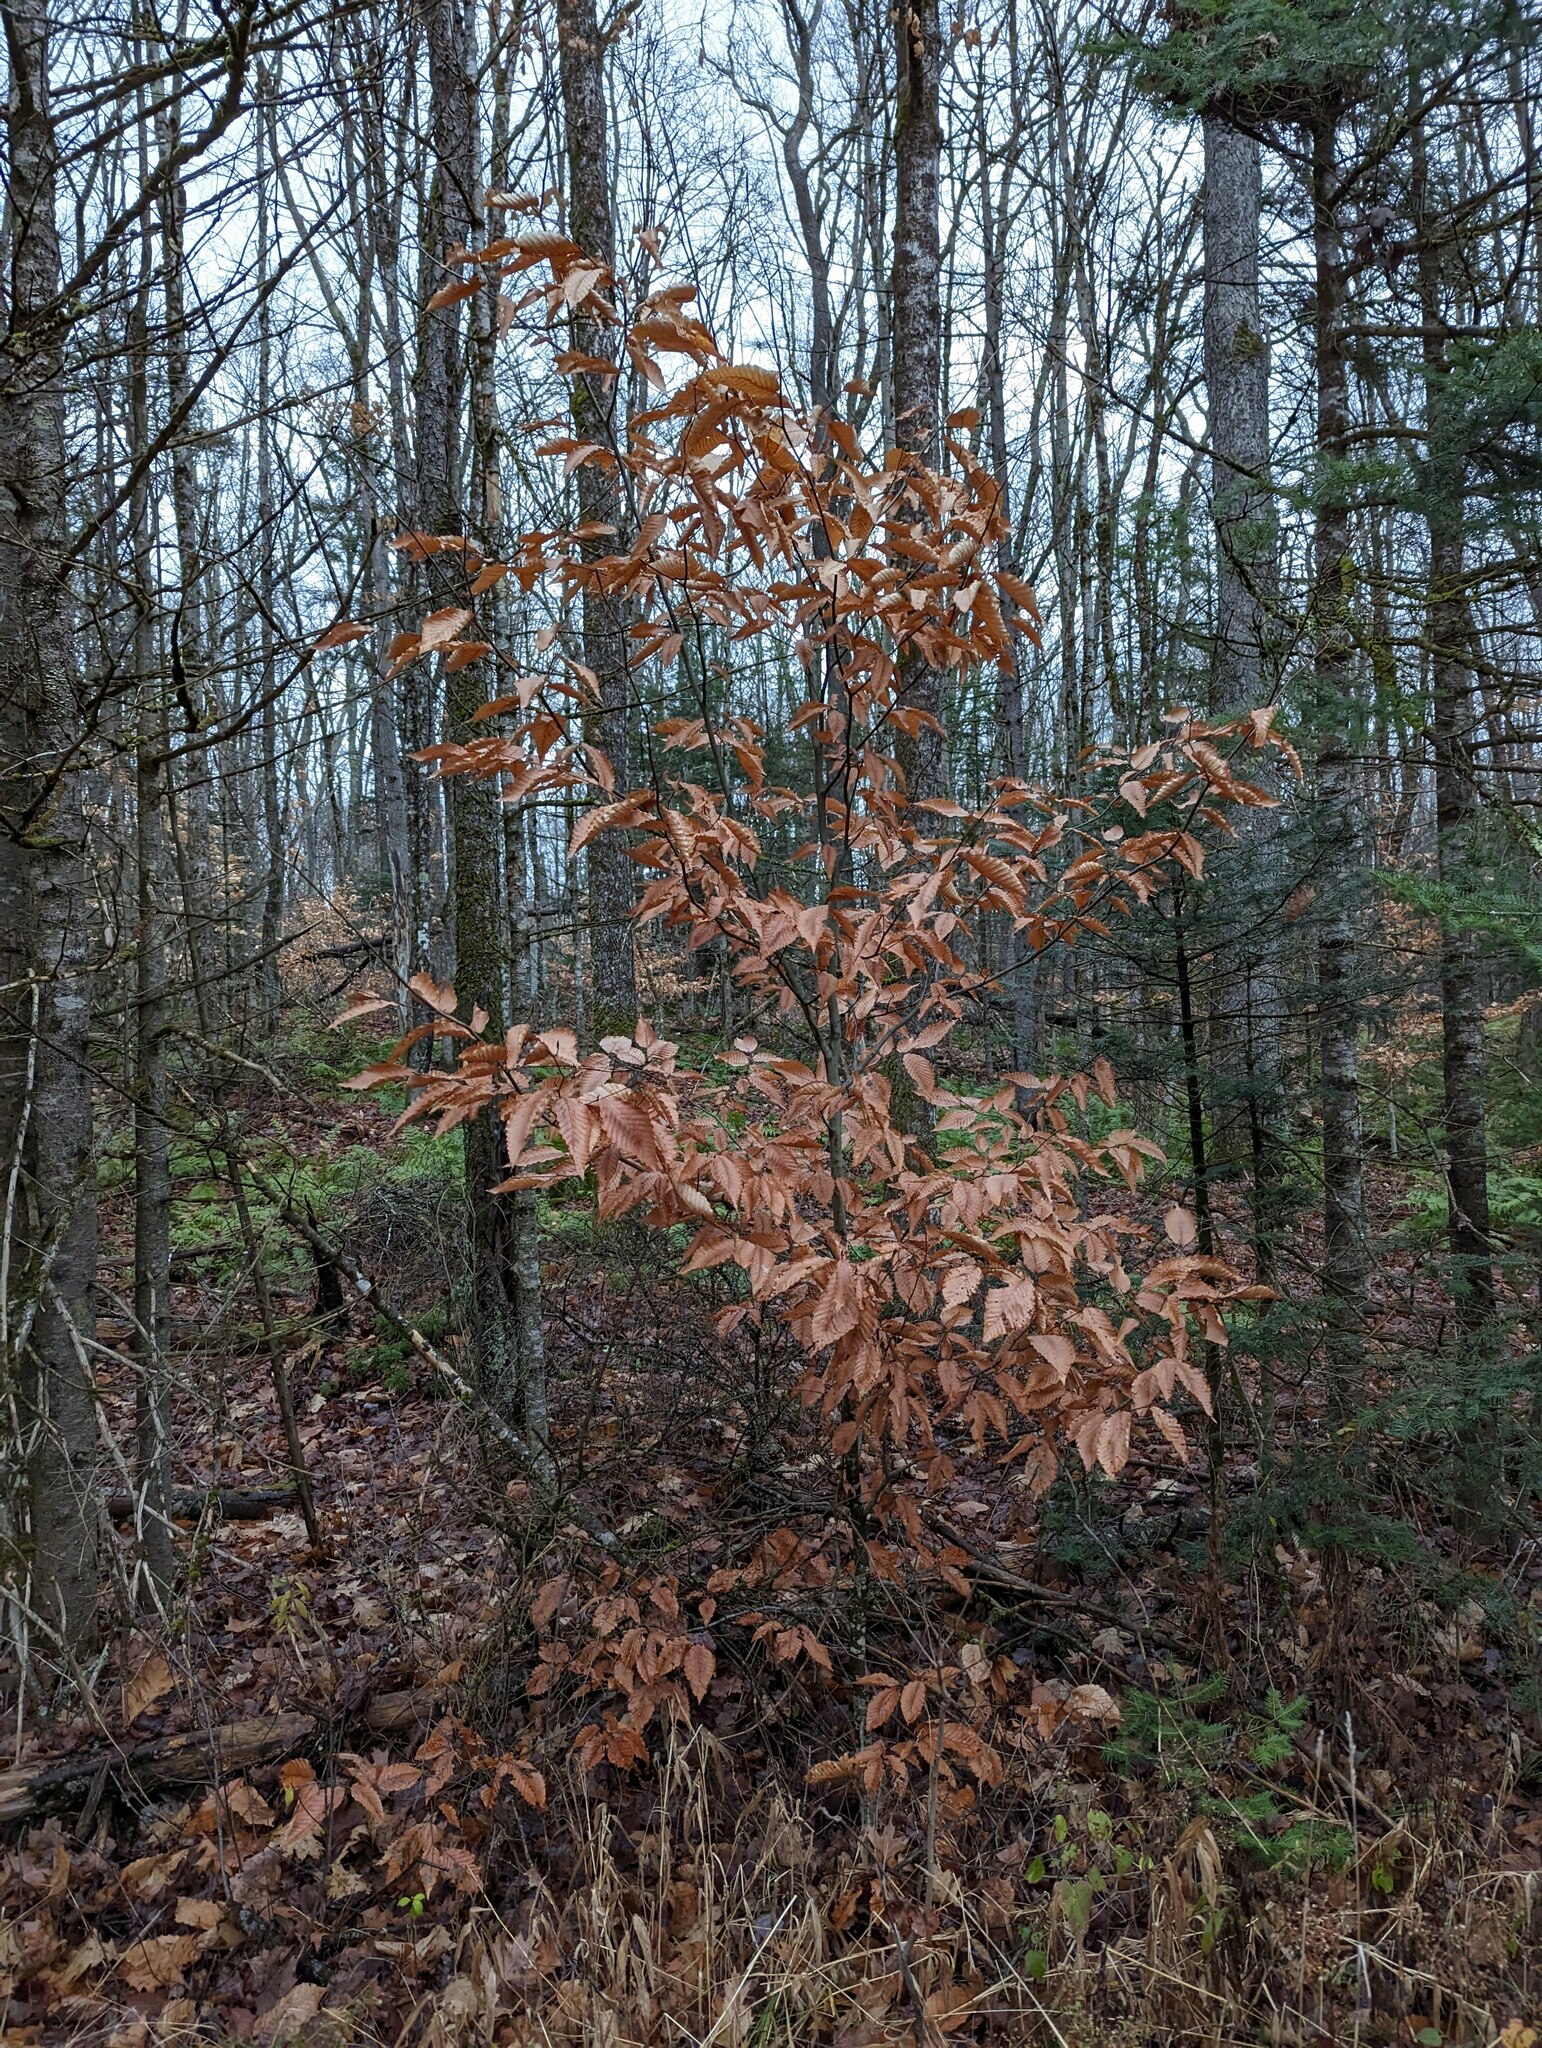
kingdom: Plantae
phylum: Tracheophyta
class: Magnoliopsida
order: Fagales
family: Fagaceae
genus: Fagus
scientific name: Fagus grandifolia
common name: American beech
